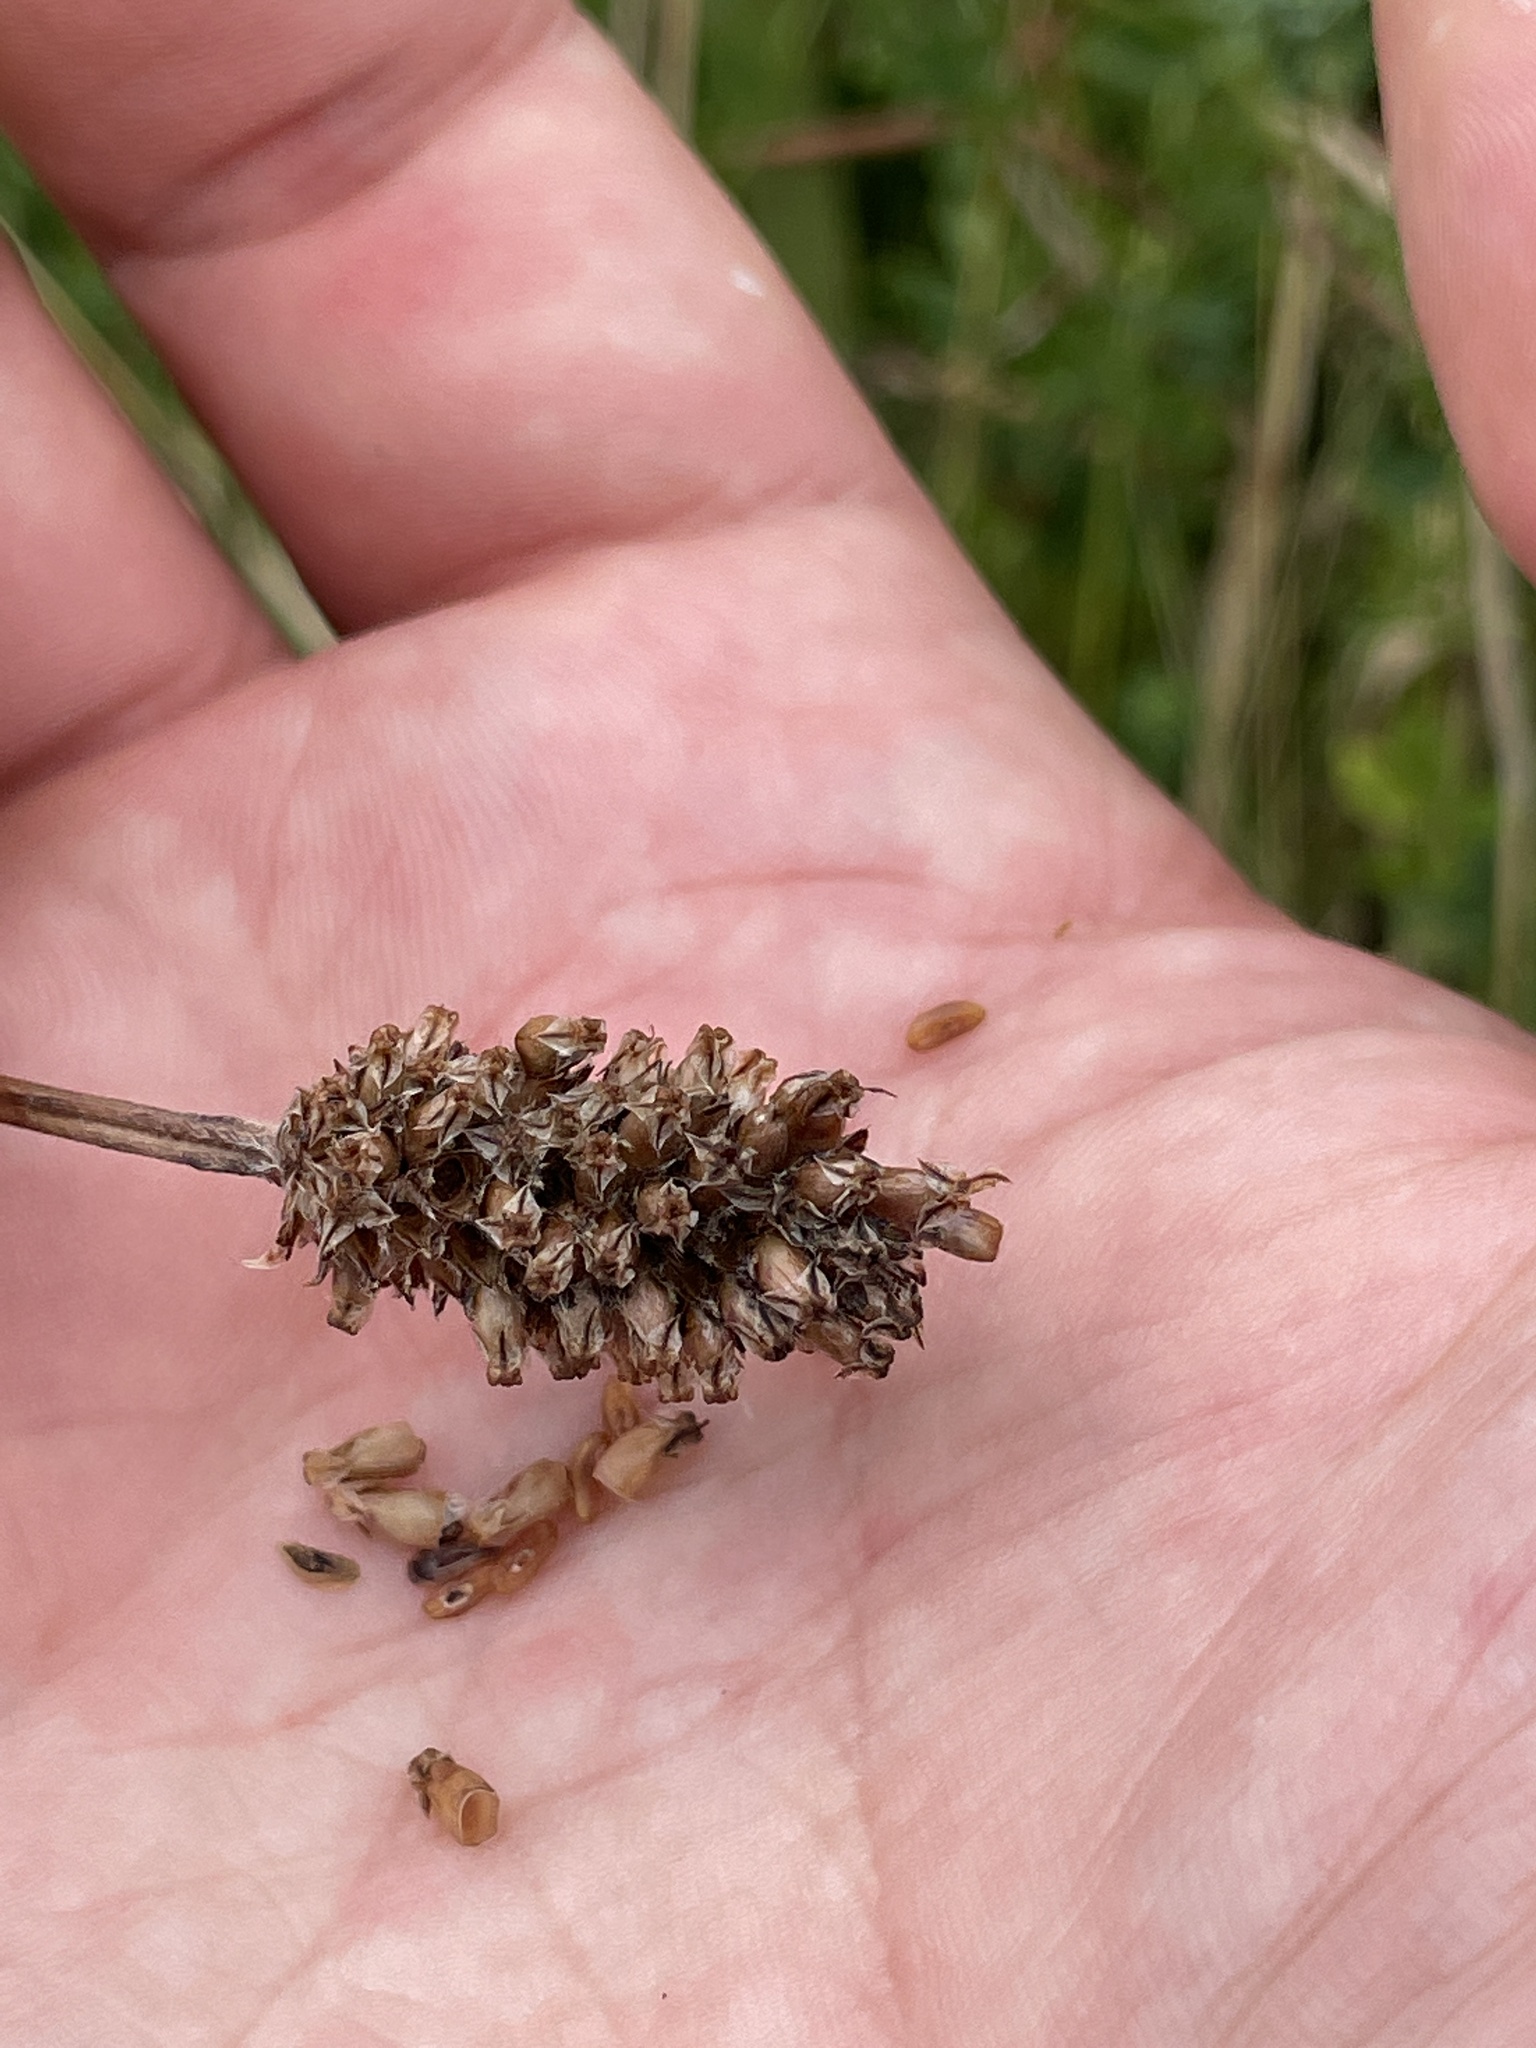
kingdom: Plantae
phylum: Tracheophyta
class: Magnoliopsida
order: Lamiales
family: Plantaginaceae
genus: Plantago
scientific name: Plantago lanceolata
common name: Ribwort plantain
